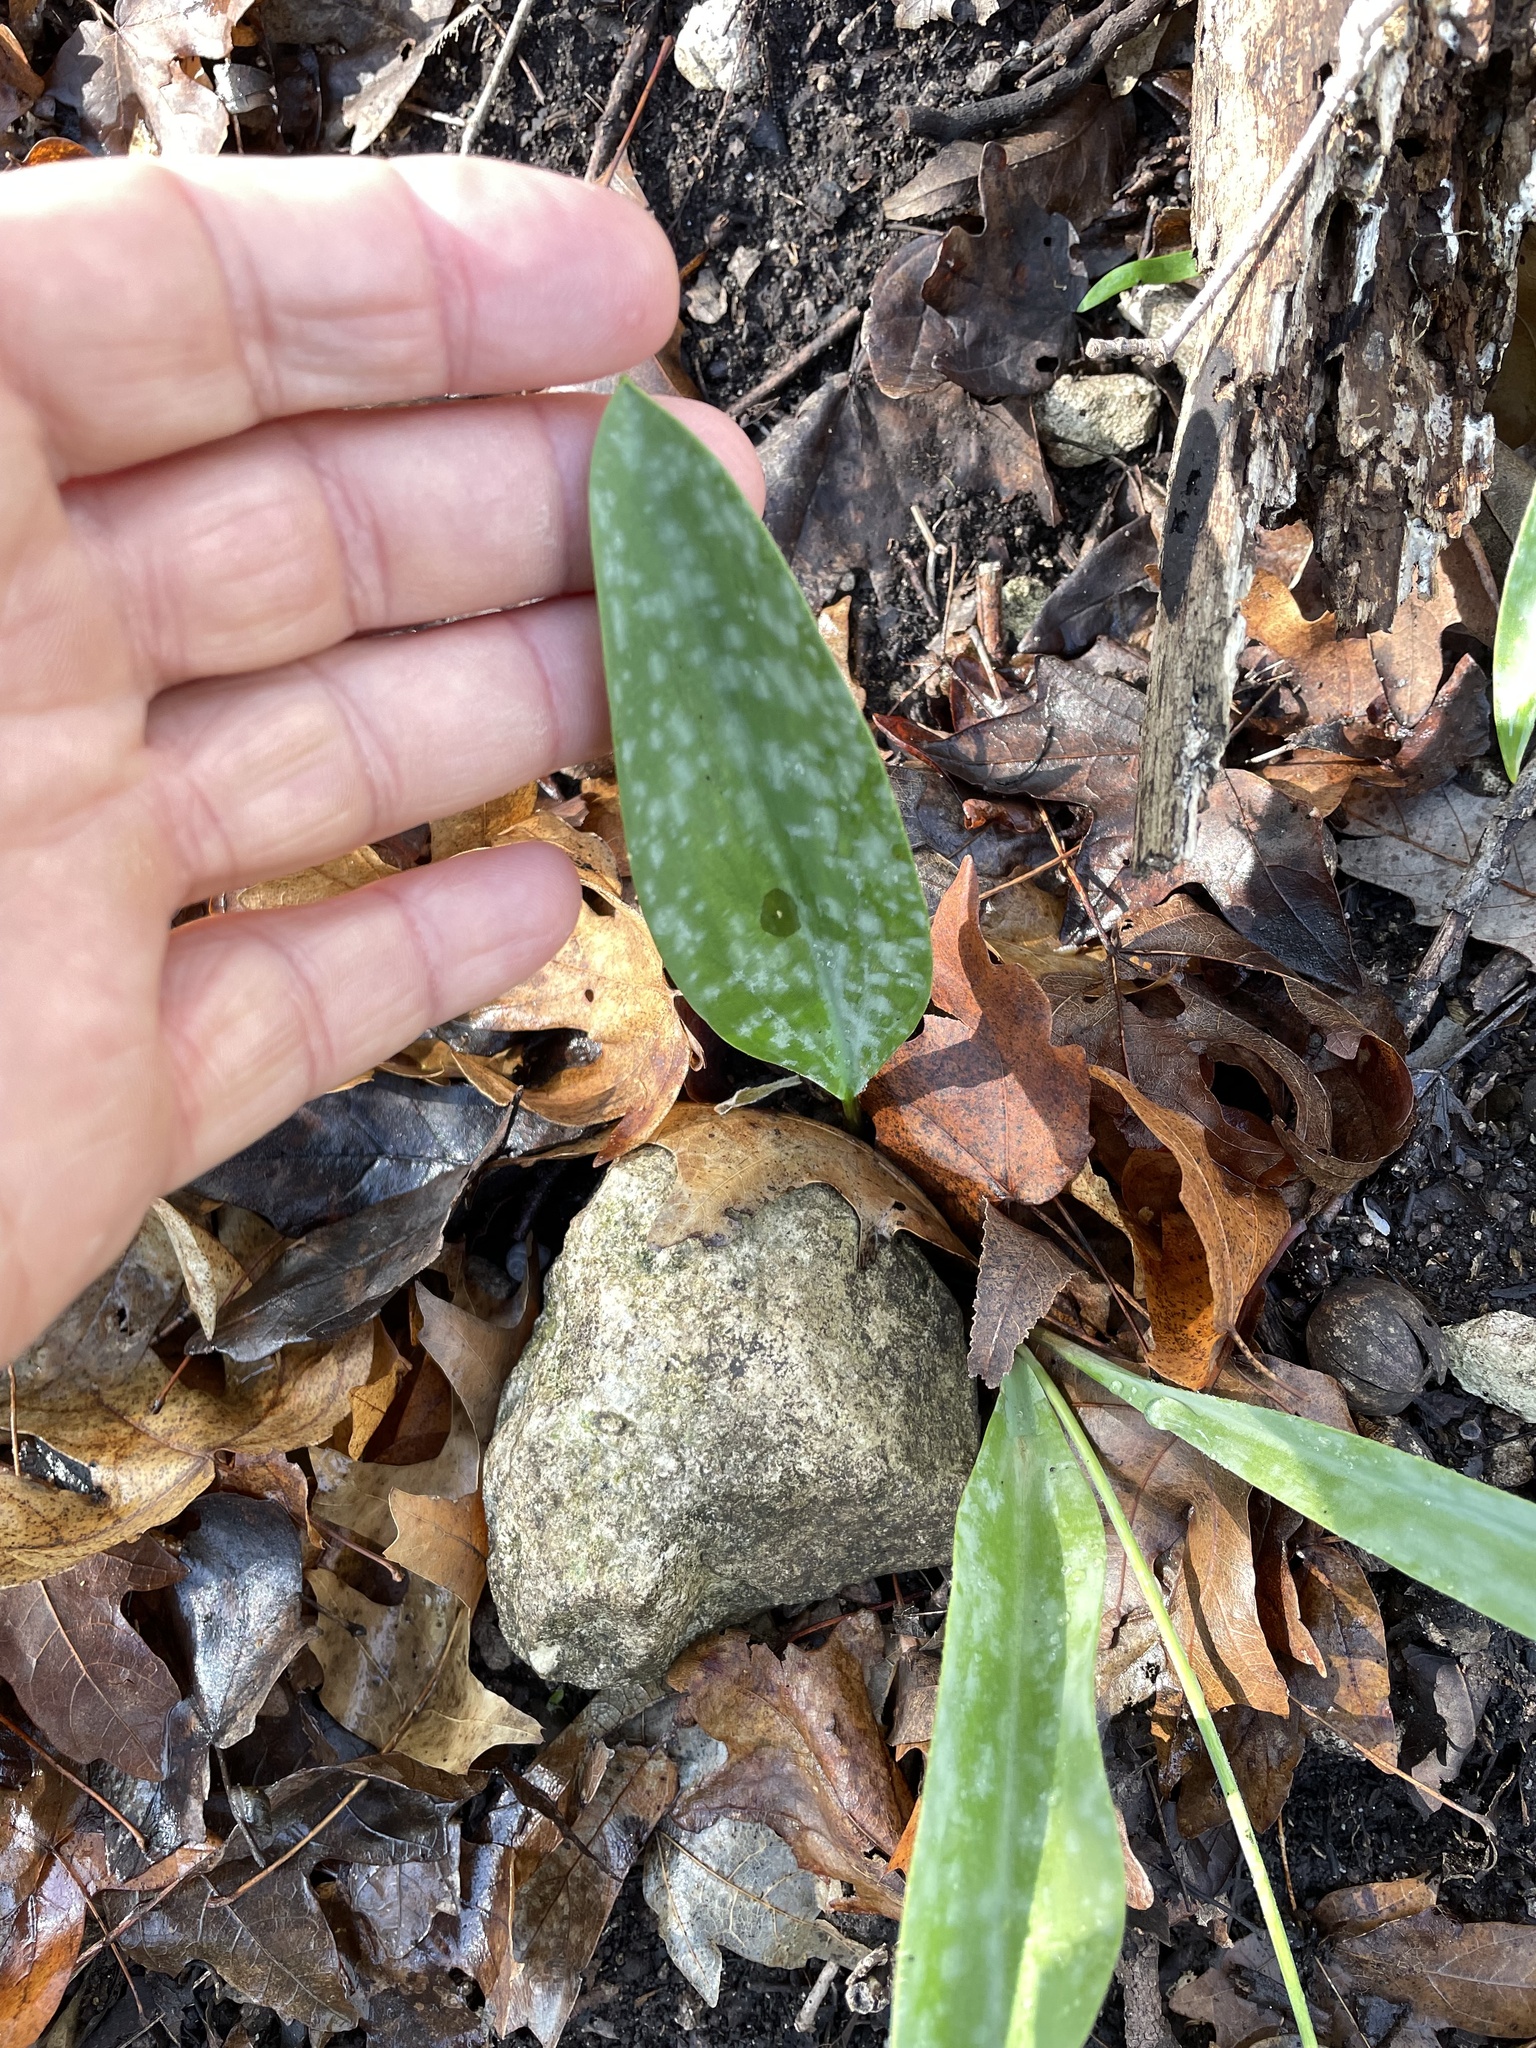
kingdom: Plantae
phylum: Tracheophyta
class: Liliopsida
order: Liliales
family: Liliaceae
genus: Erythronium
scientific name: Erythronium albidum
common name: White trout-lily
